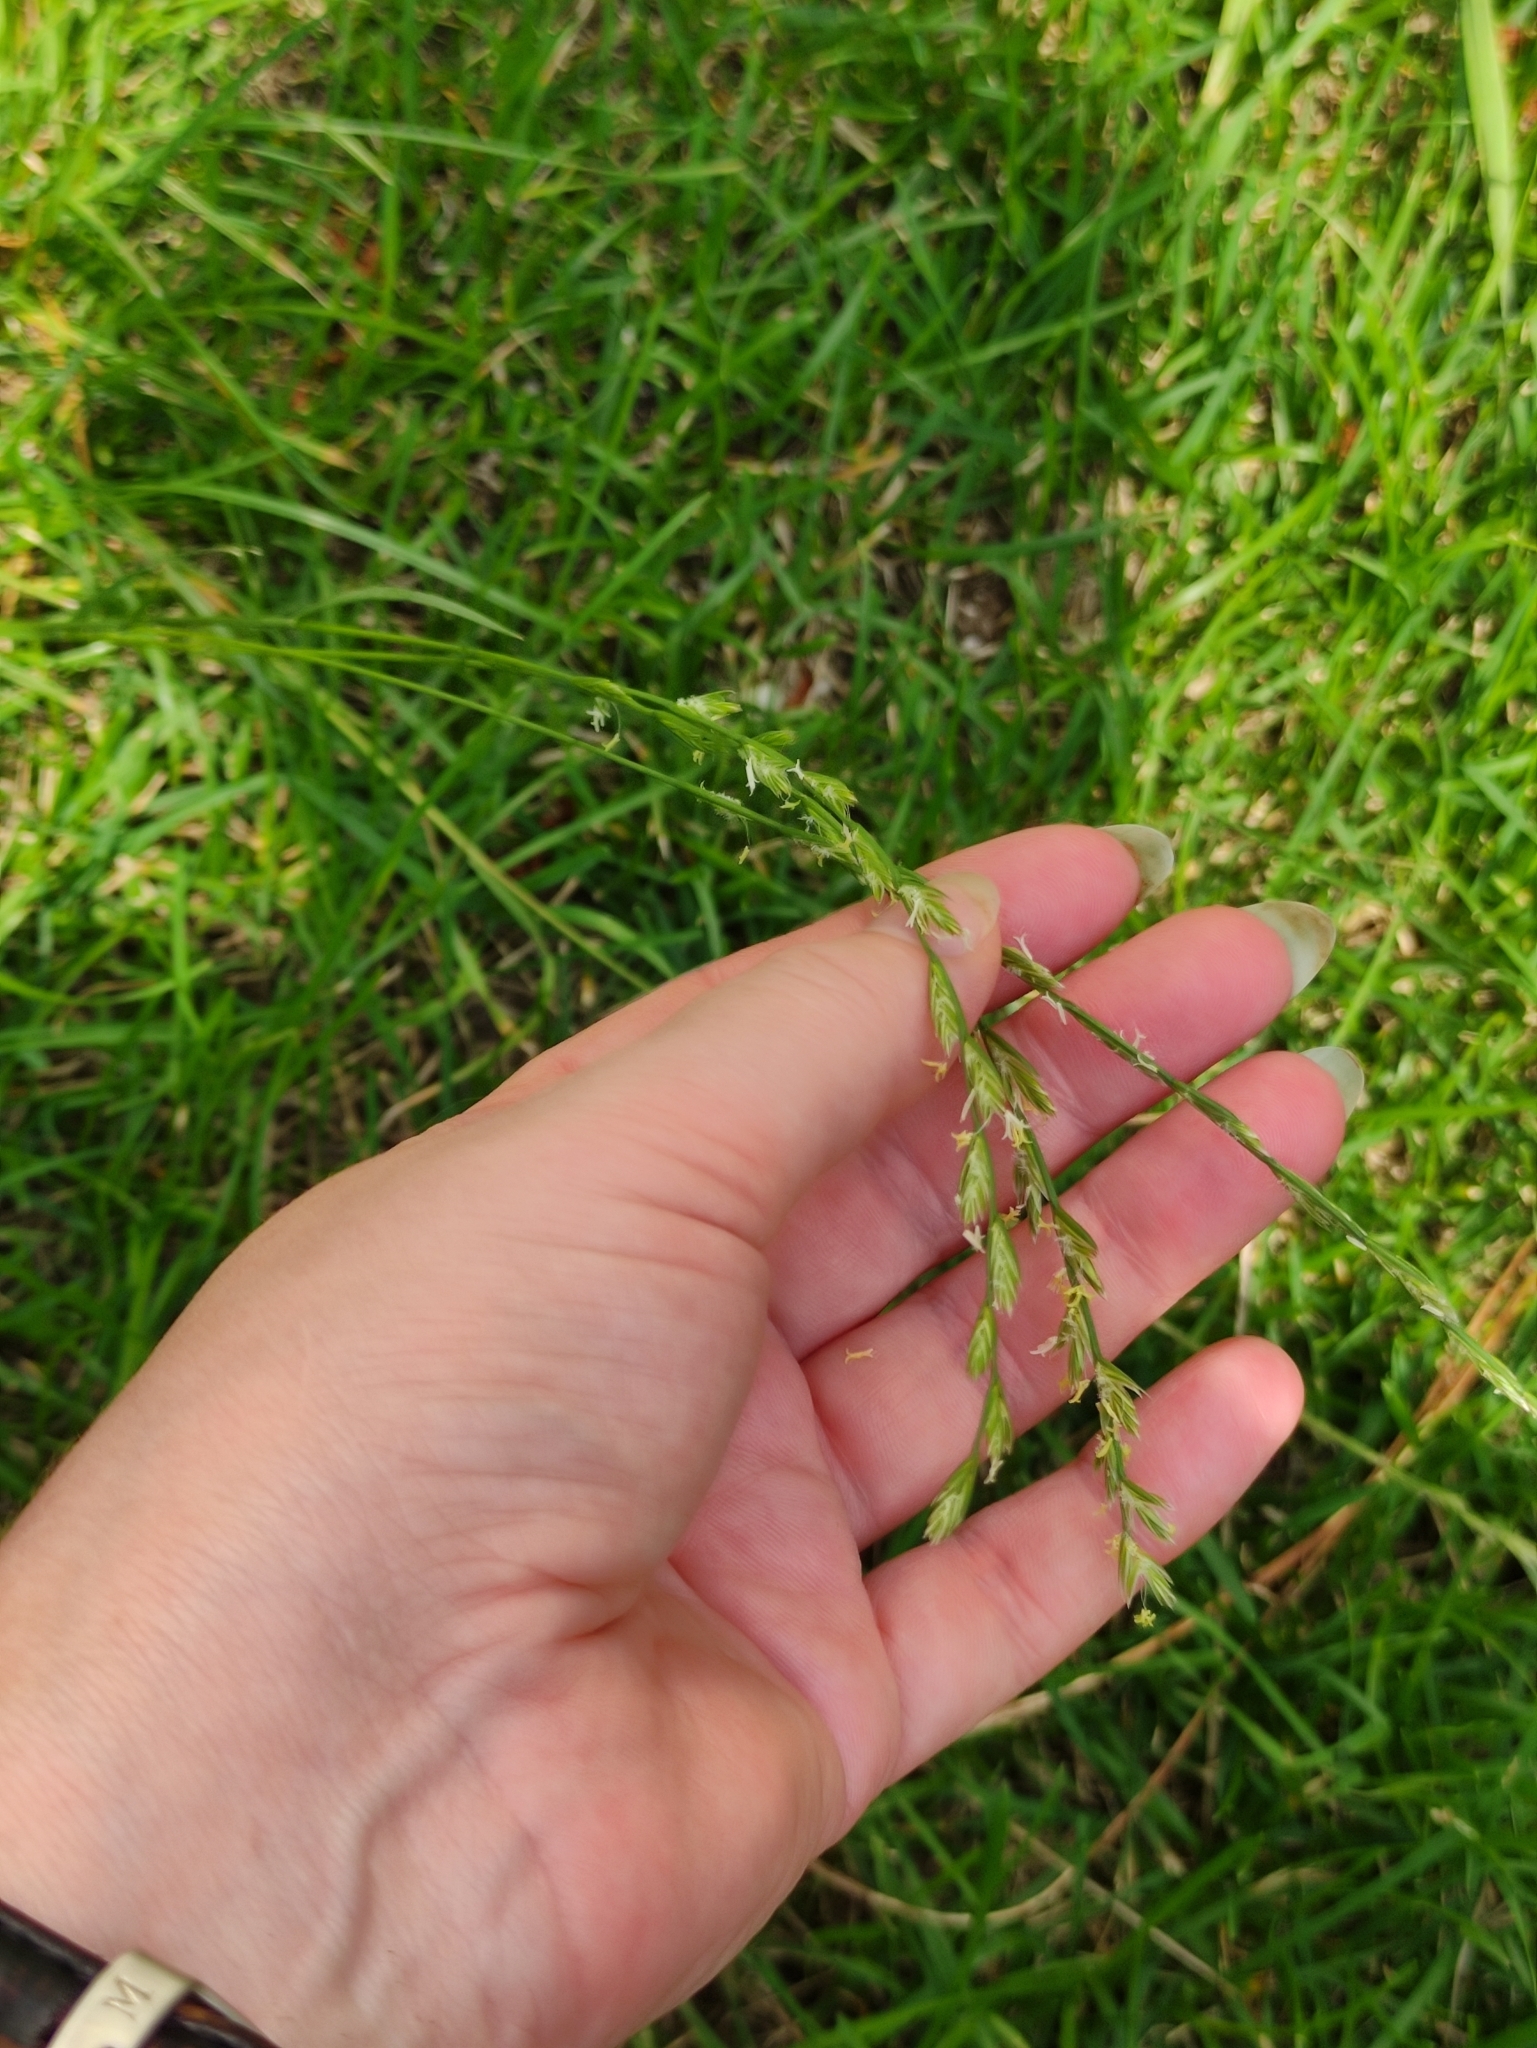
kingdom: Plantae
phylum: Tracheophyta
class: Liliopsida
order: Poales
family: Poaceae
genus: Lolium
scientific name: Lolium perenne
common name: Perennial ryegrass
